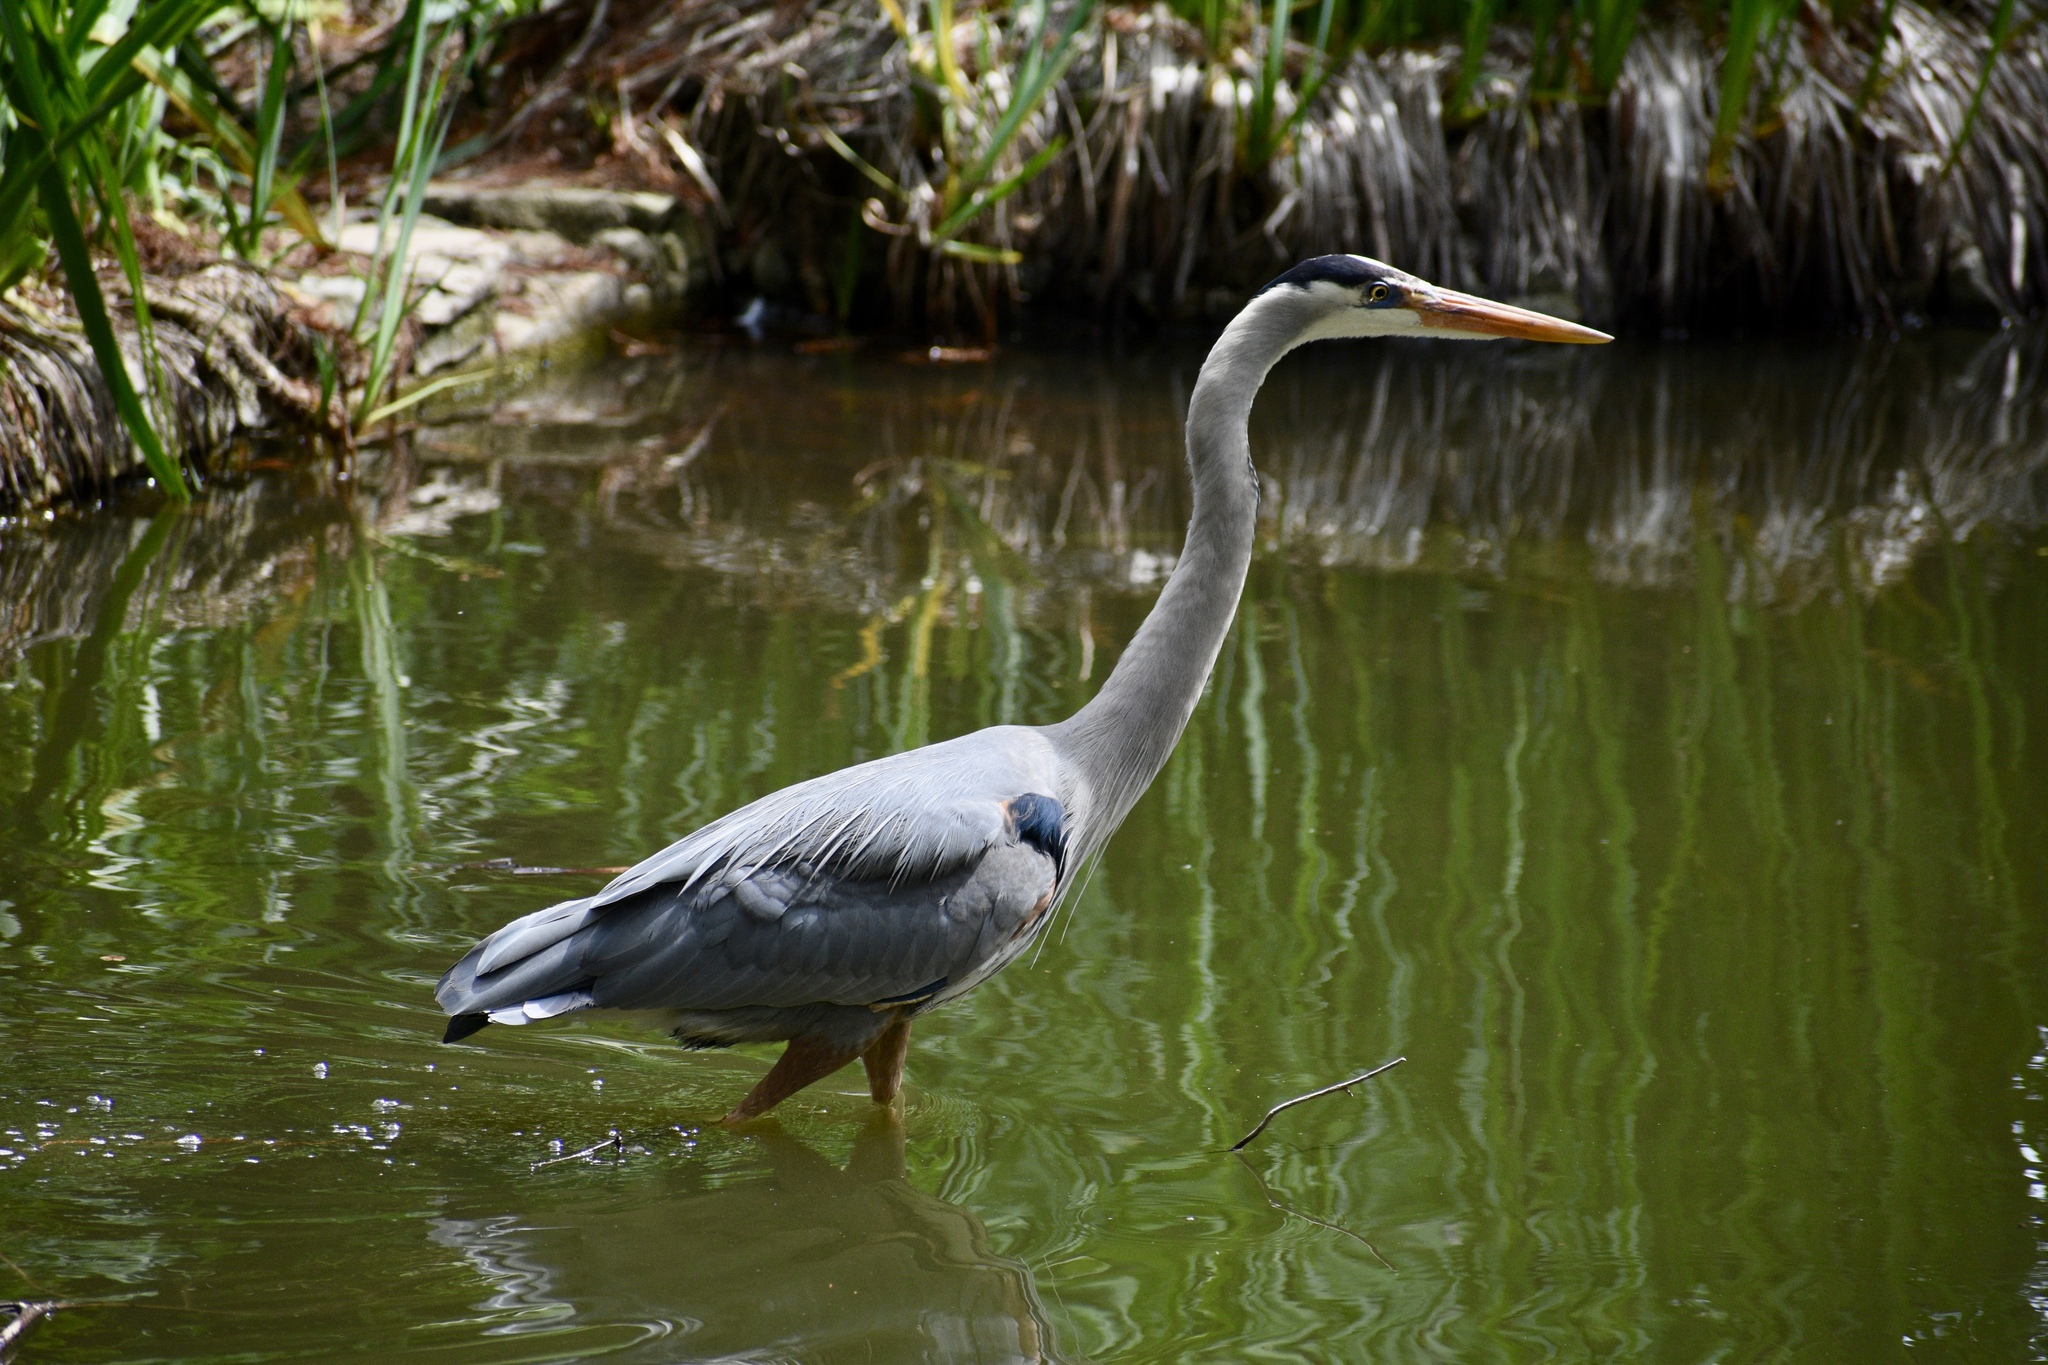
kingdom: Animalia
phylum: Chordata
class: Aves
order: Pelecaniformes
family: Ardeidae
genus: Ardea
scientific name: Ardea herodias
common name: Great blue heron
